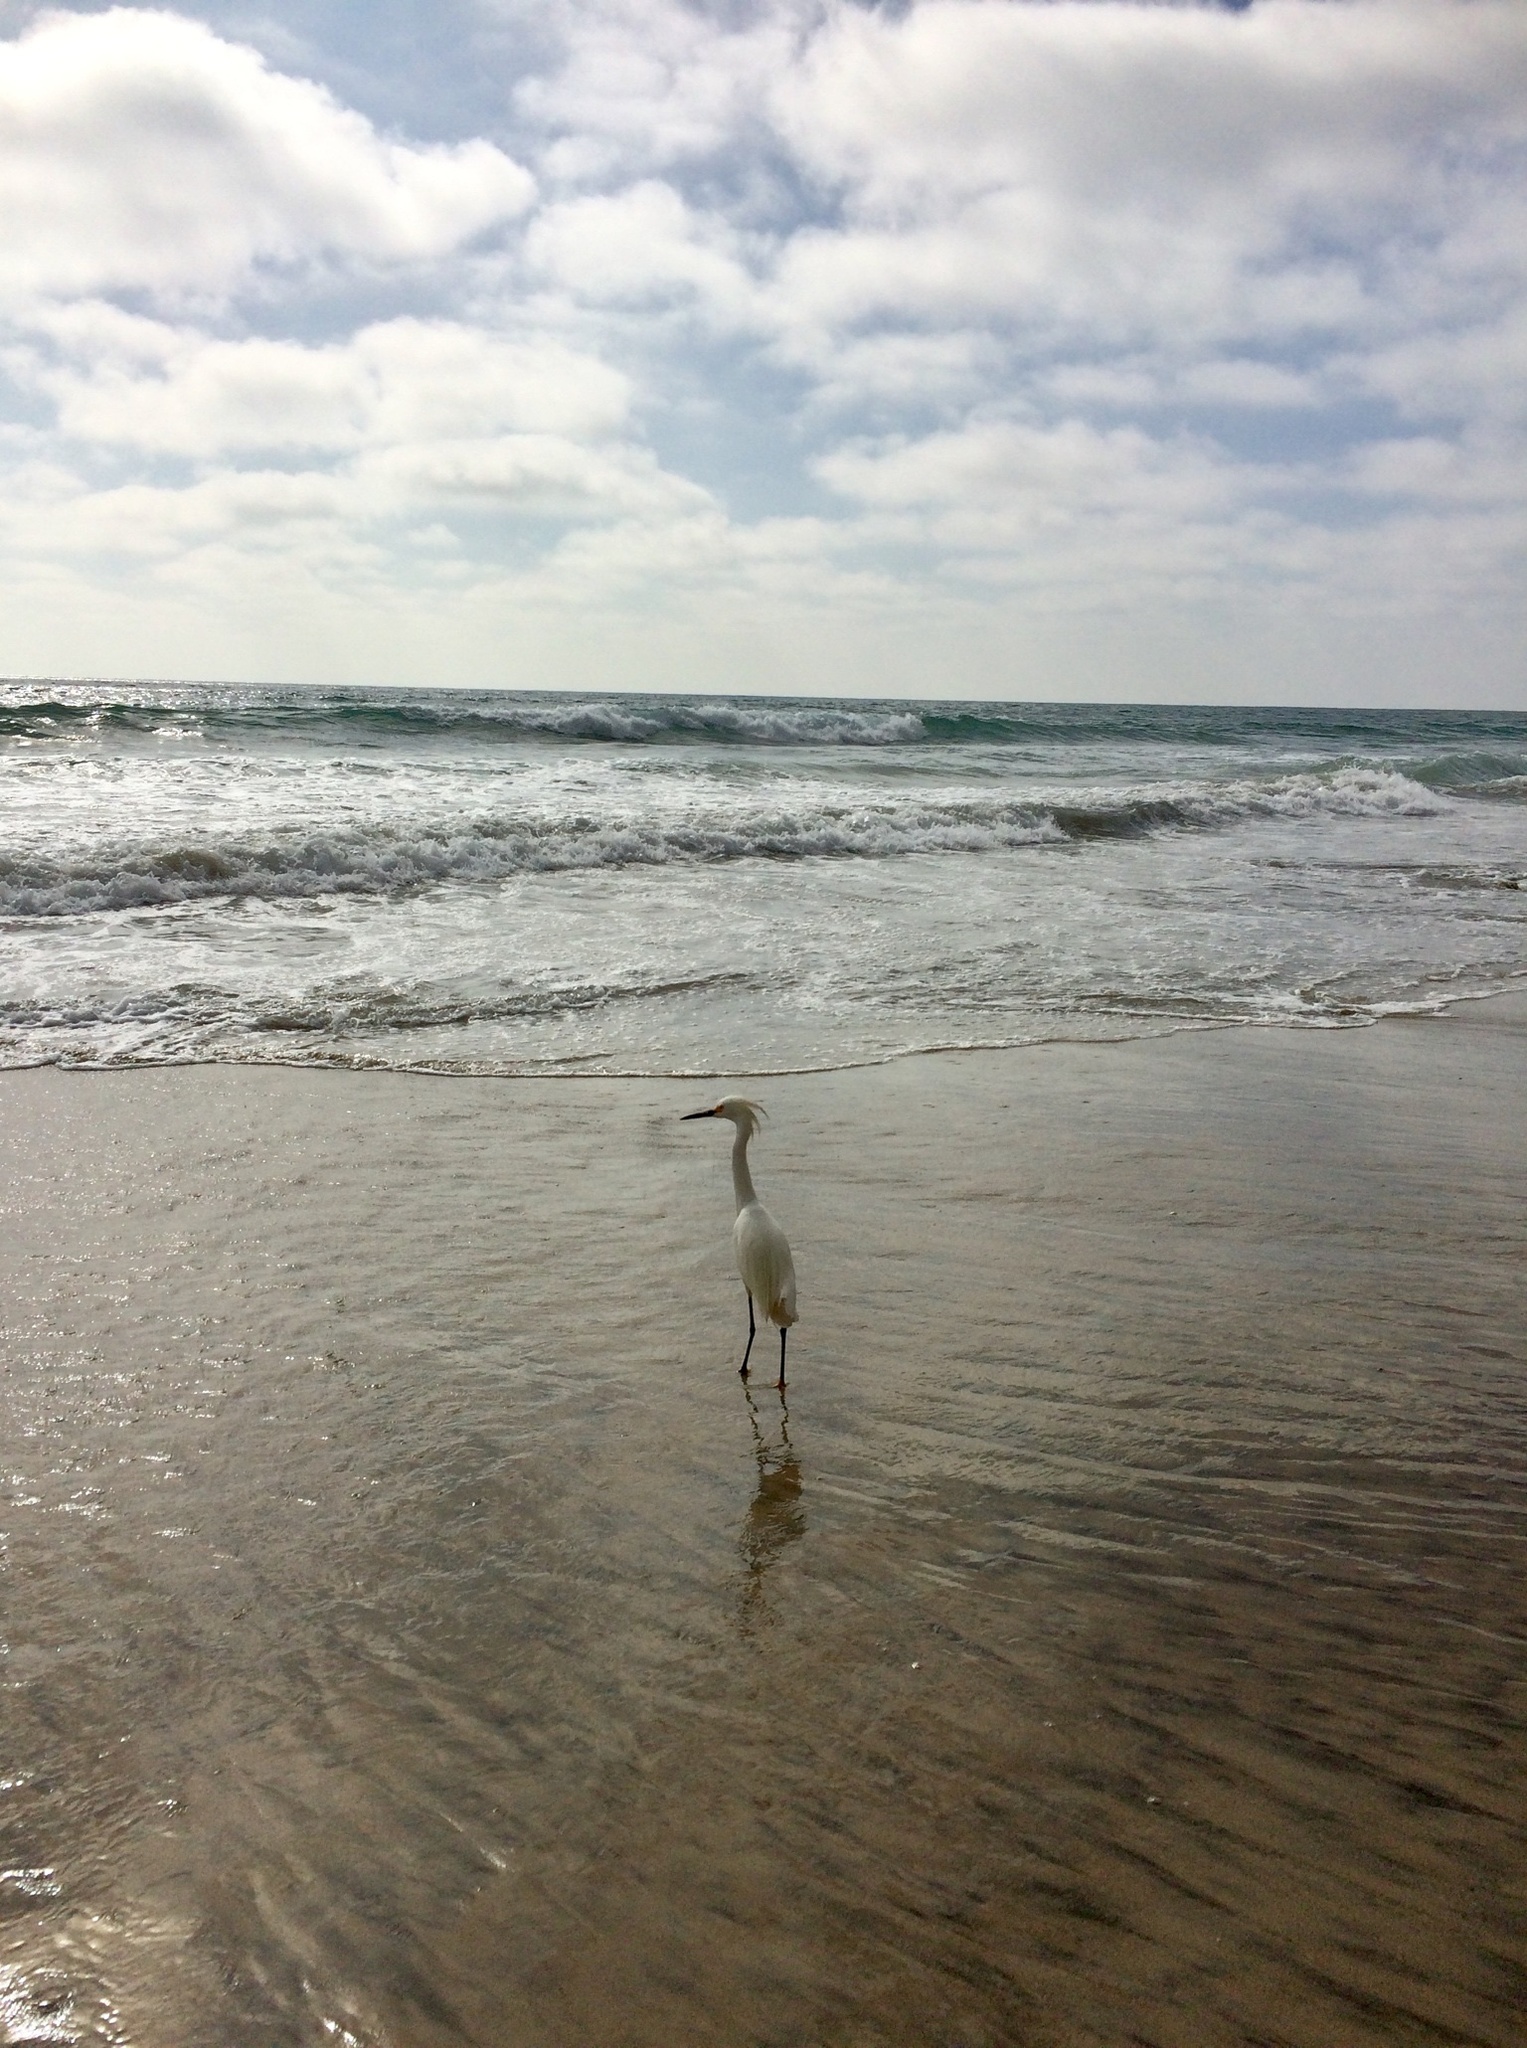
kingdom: Animalia
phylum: Chordata
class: Aves
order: Pelecaniformes
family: Ardeidae
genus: Egretta
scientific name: Egretta thula
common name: Snowy egret
